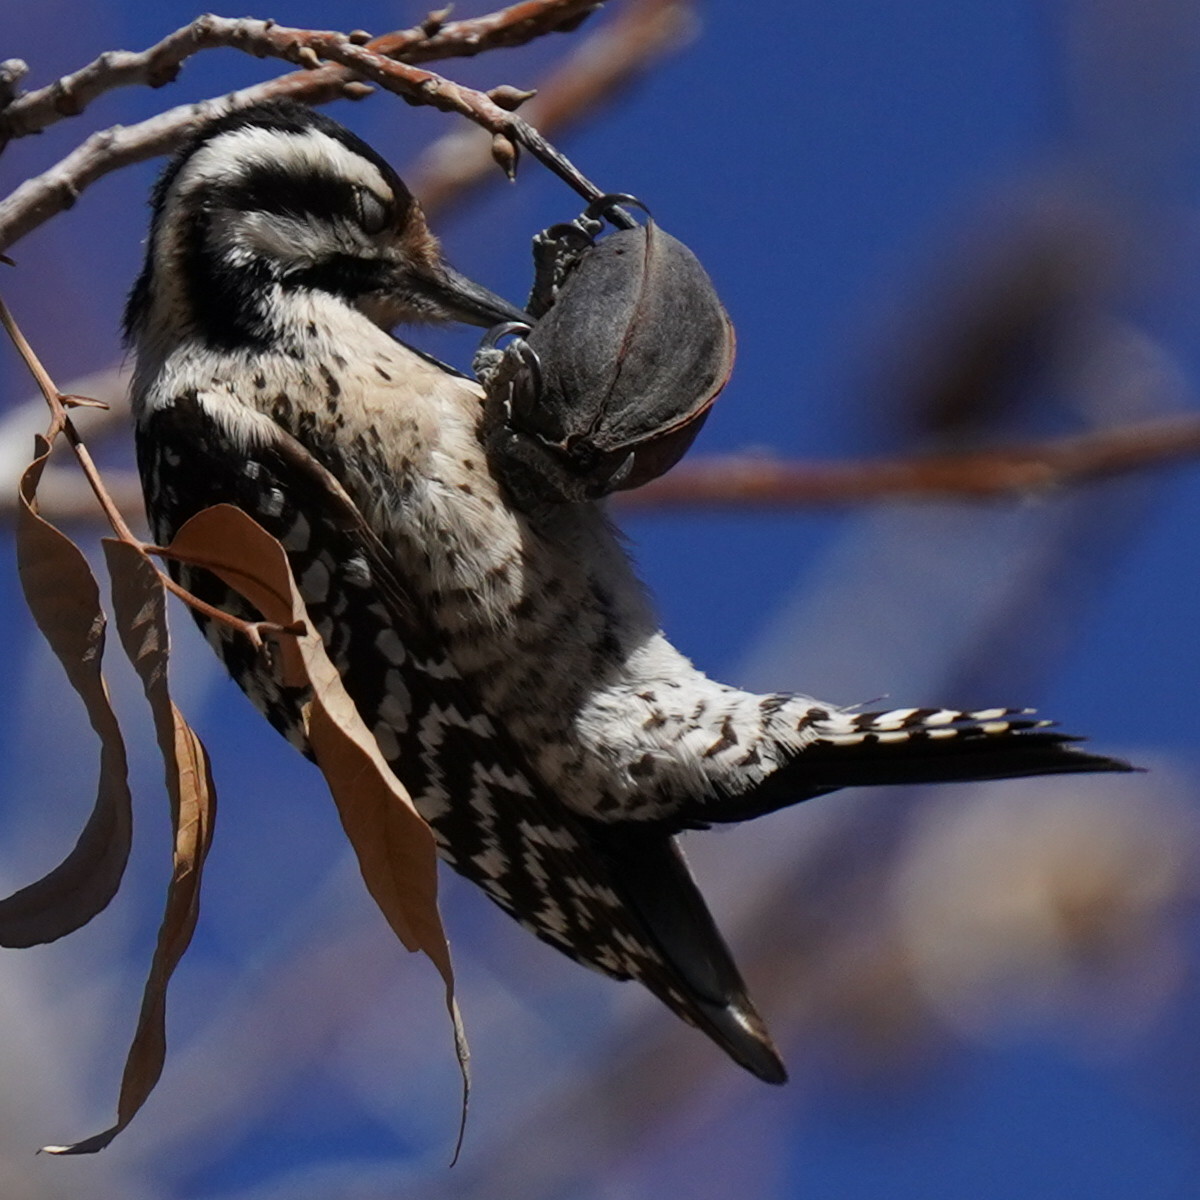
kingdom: Animalia
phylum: Chordata
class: Aves
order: Piciformes
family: Picidae
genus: Dryobates
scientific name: Dryobates scalaris
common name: Ladder-backed woodpecker
